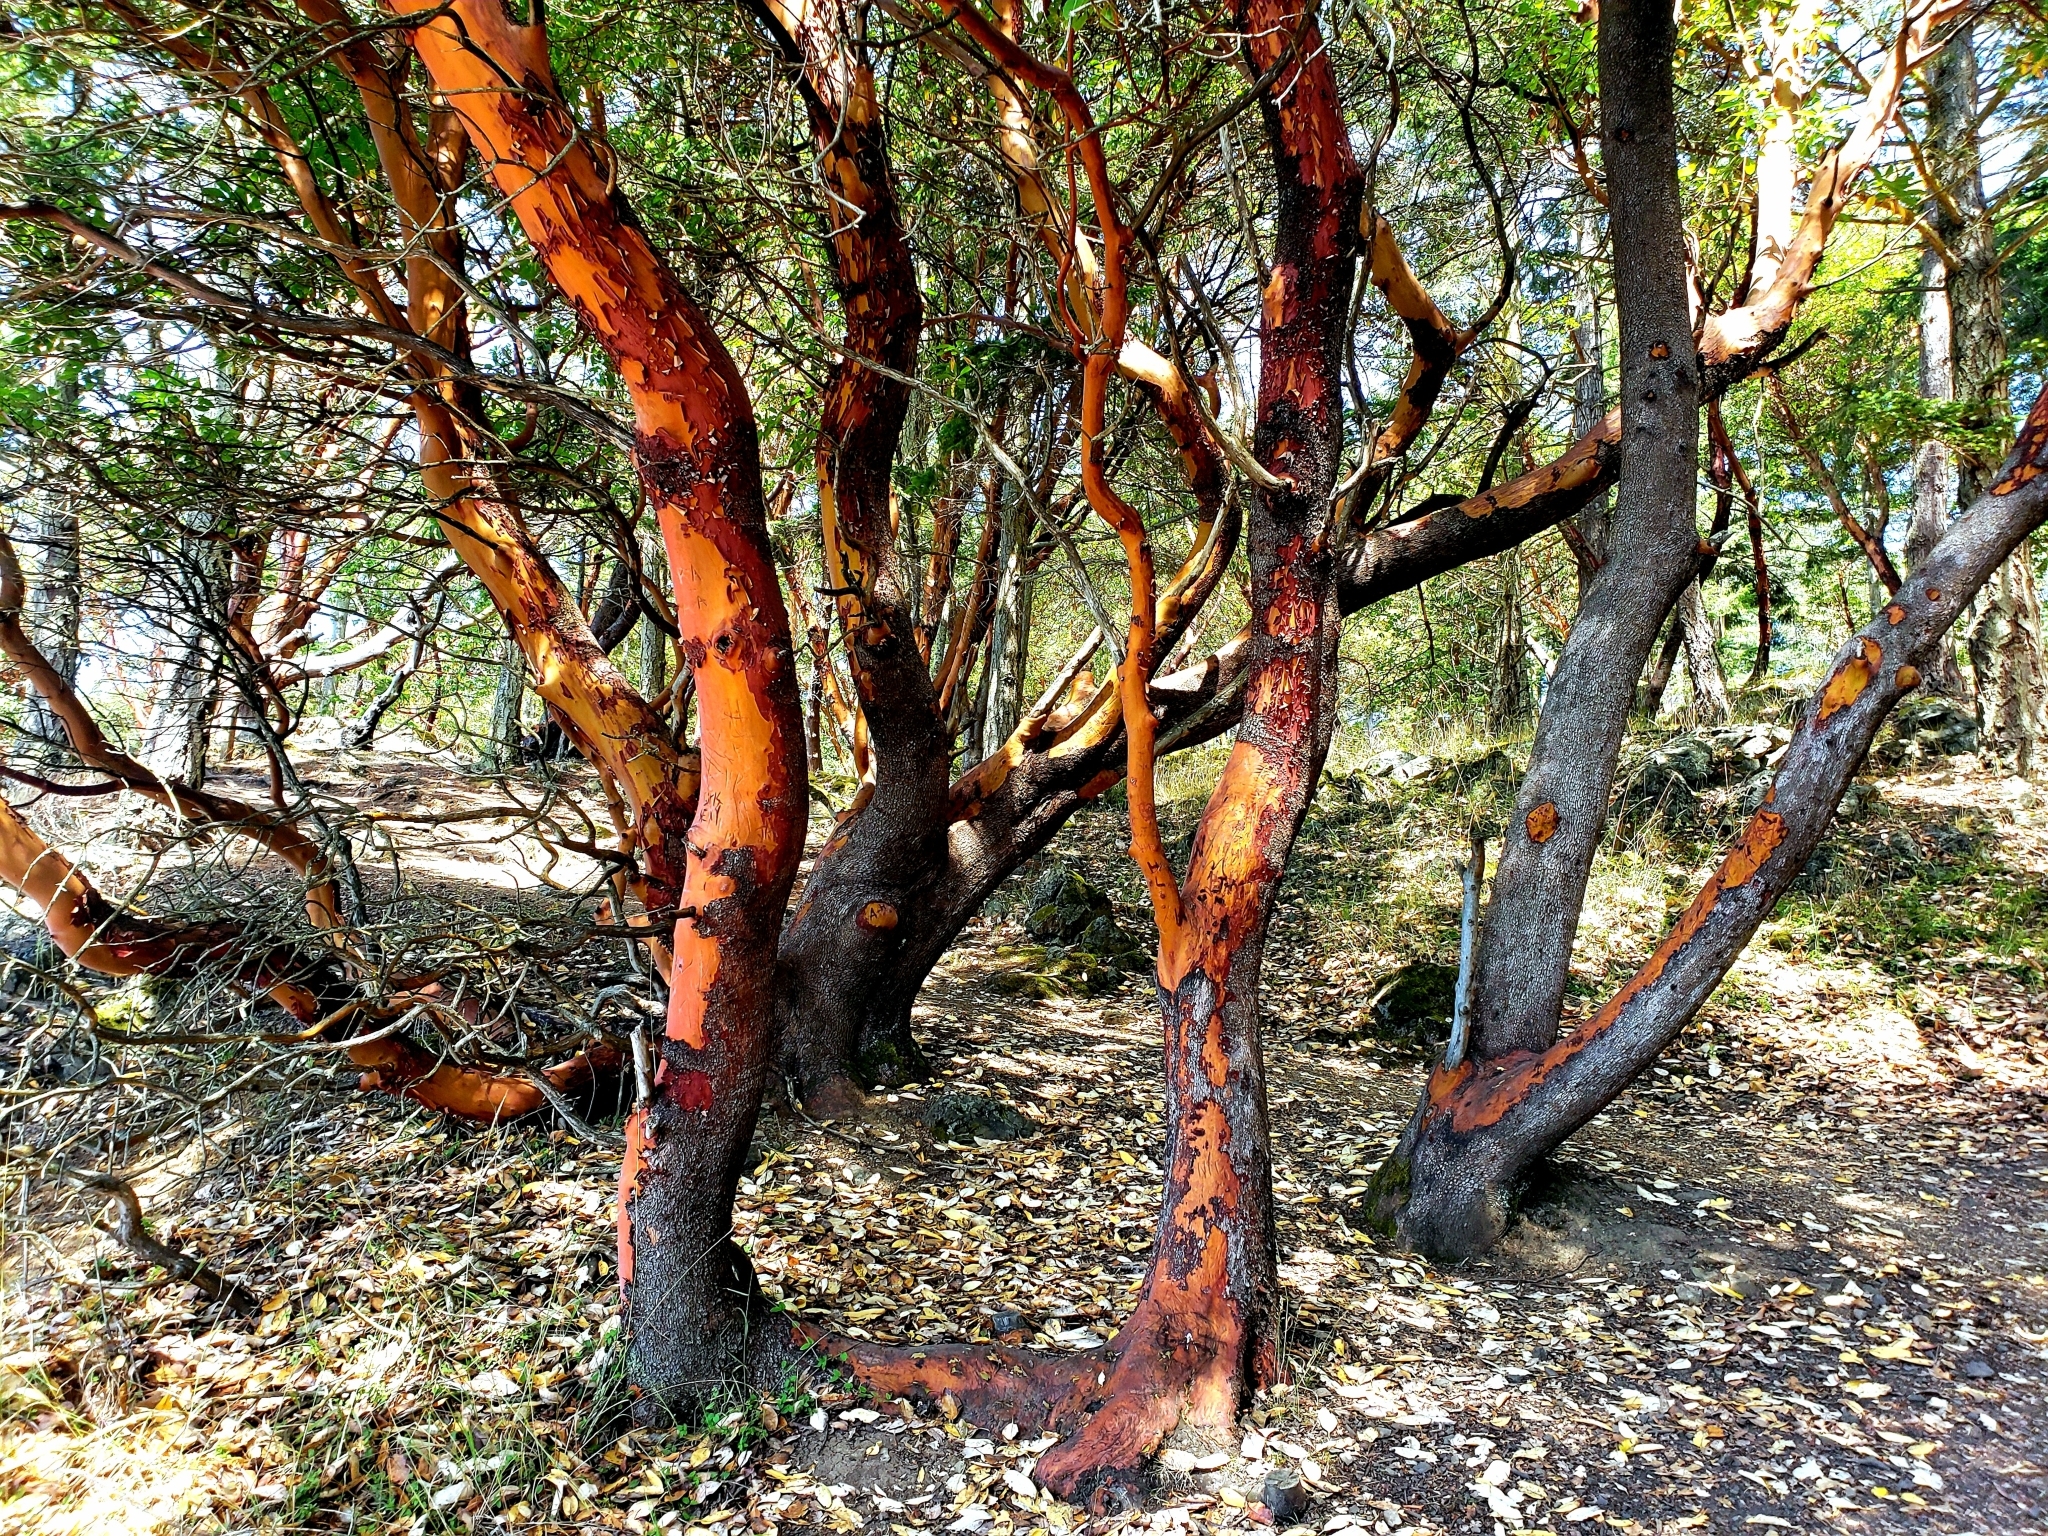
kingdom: Plantae
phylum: Tracheophyta
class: Magnoliopsida
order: Ericales
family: Ericaceae
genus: Arbutus
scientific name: Arbutus menziesii
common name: Pacific madrone
